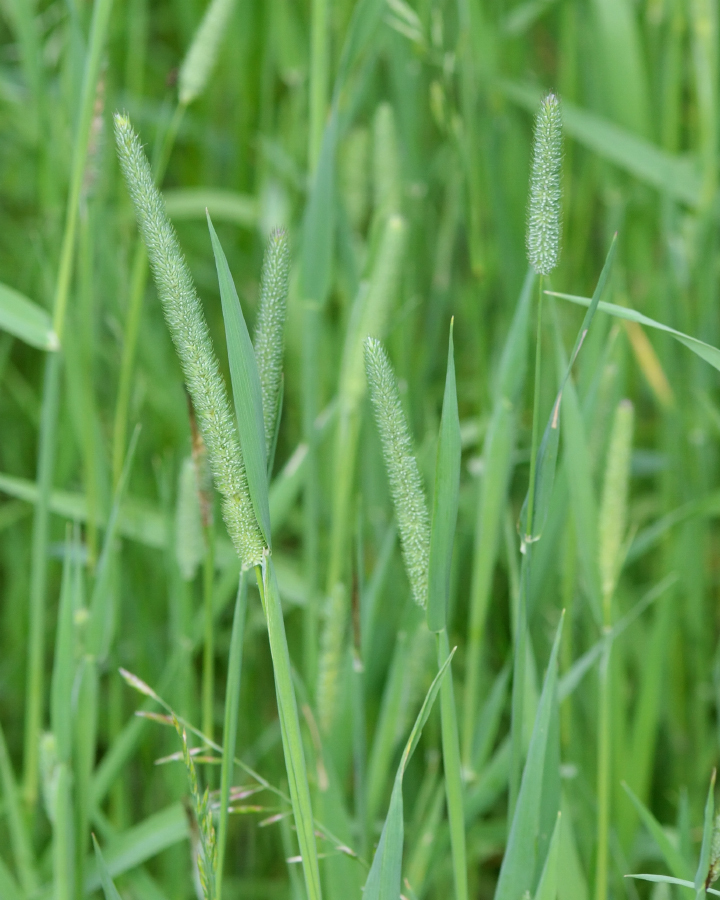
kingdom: Plantae
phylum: Tracheophyta
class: Liliopsida
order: Poales
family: Poaceae
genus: Phleum
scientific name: Phleum pratense
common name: Timothy grass
